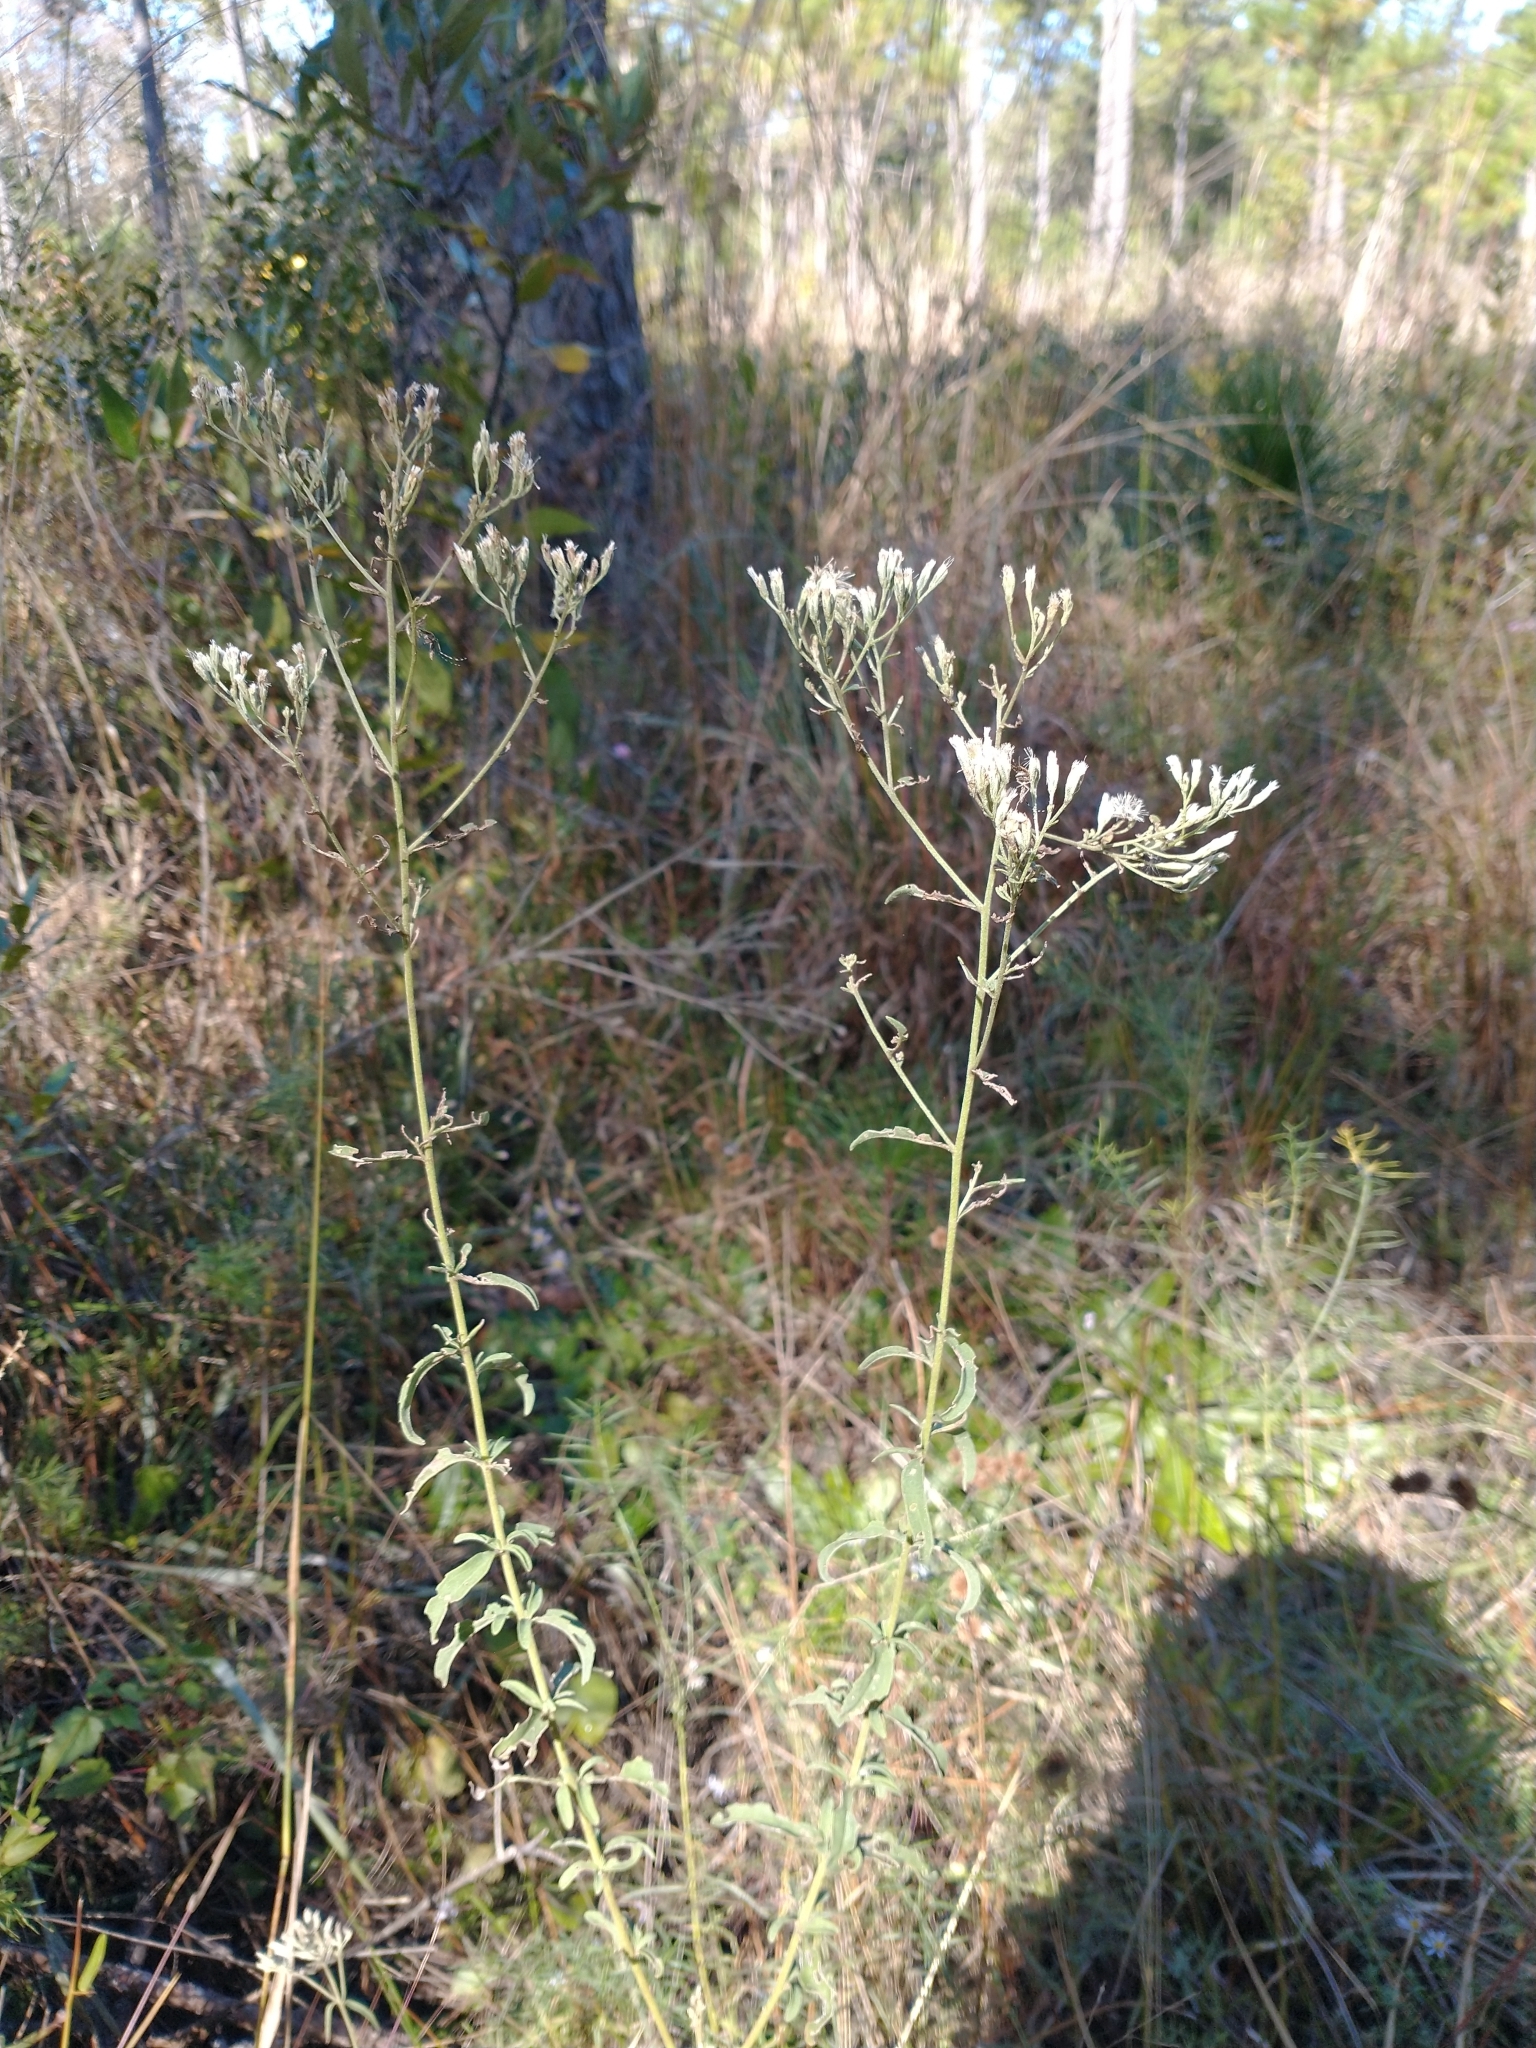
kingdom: Plantae
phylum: Tracheophyta
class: Magnoliopsida
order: Asterales
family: Asteraceae
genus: Eupatorium
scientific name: Eupatorium mohrii
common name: Mohr's thoroughwort
